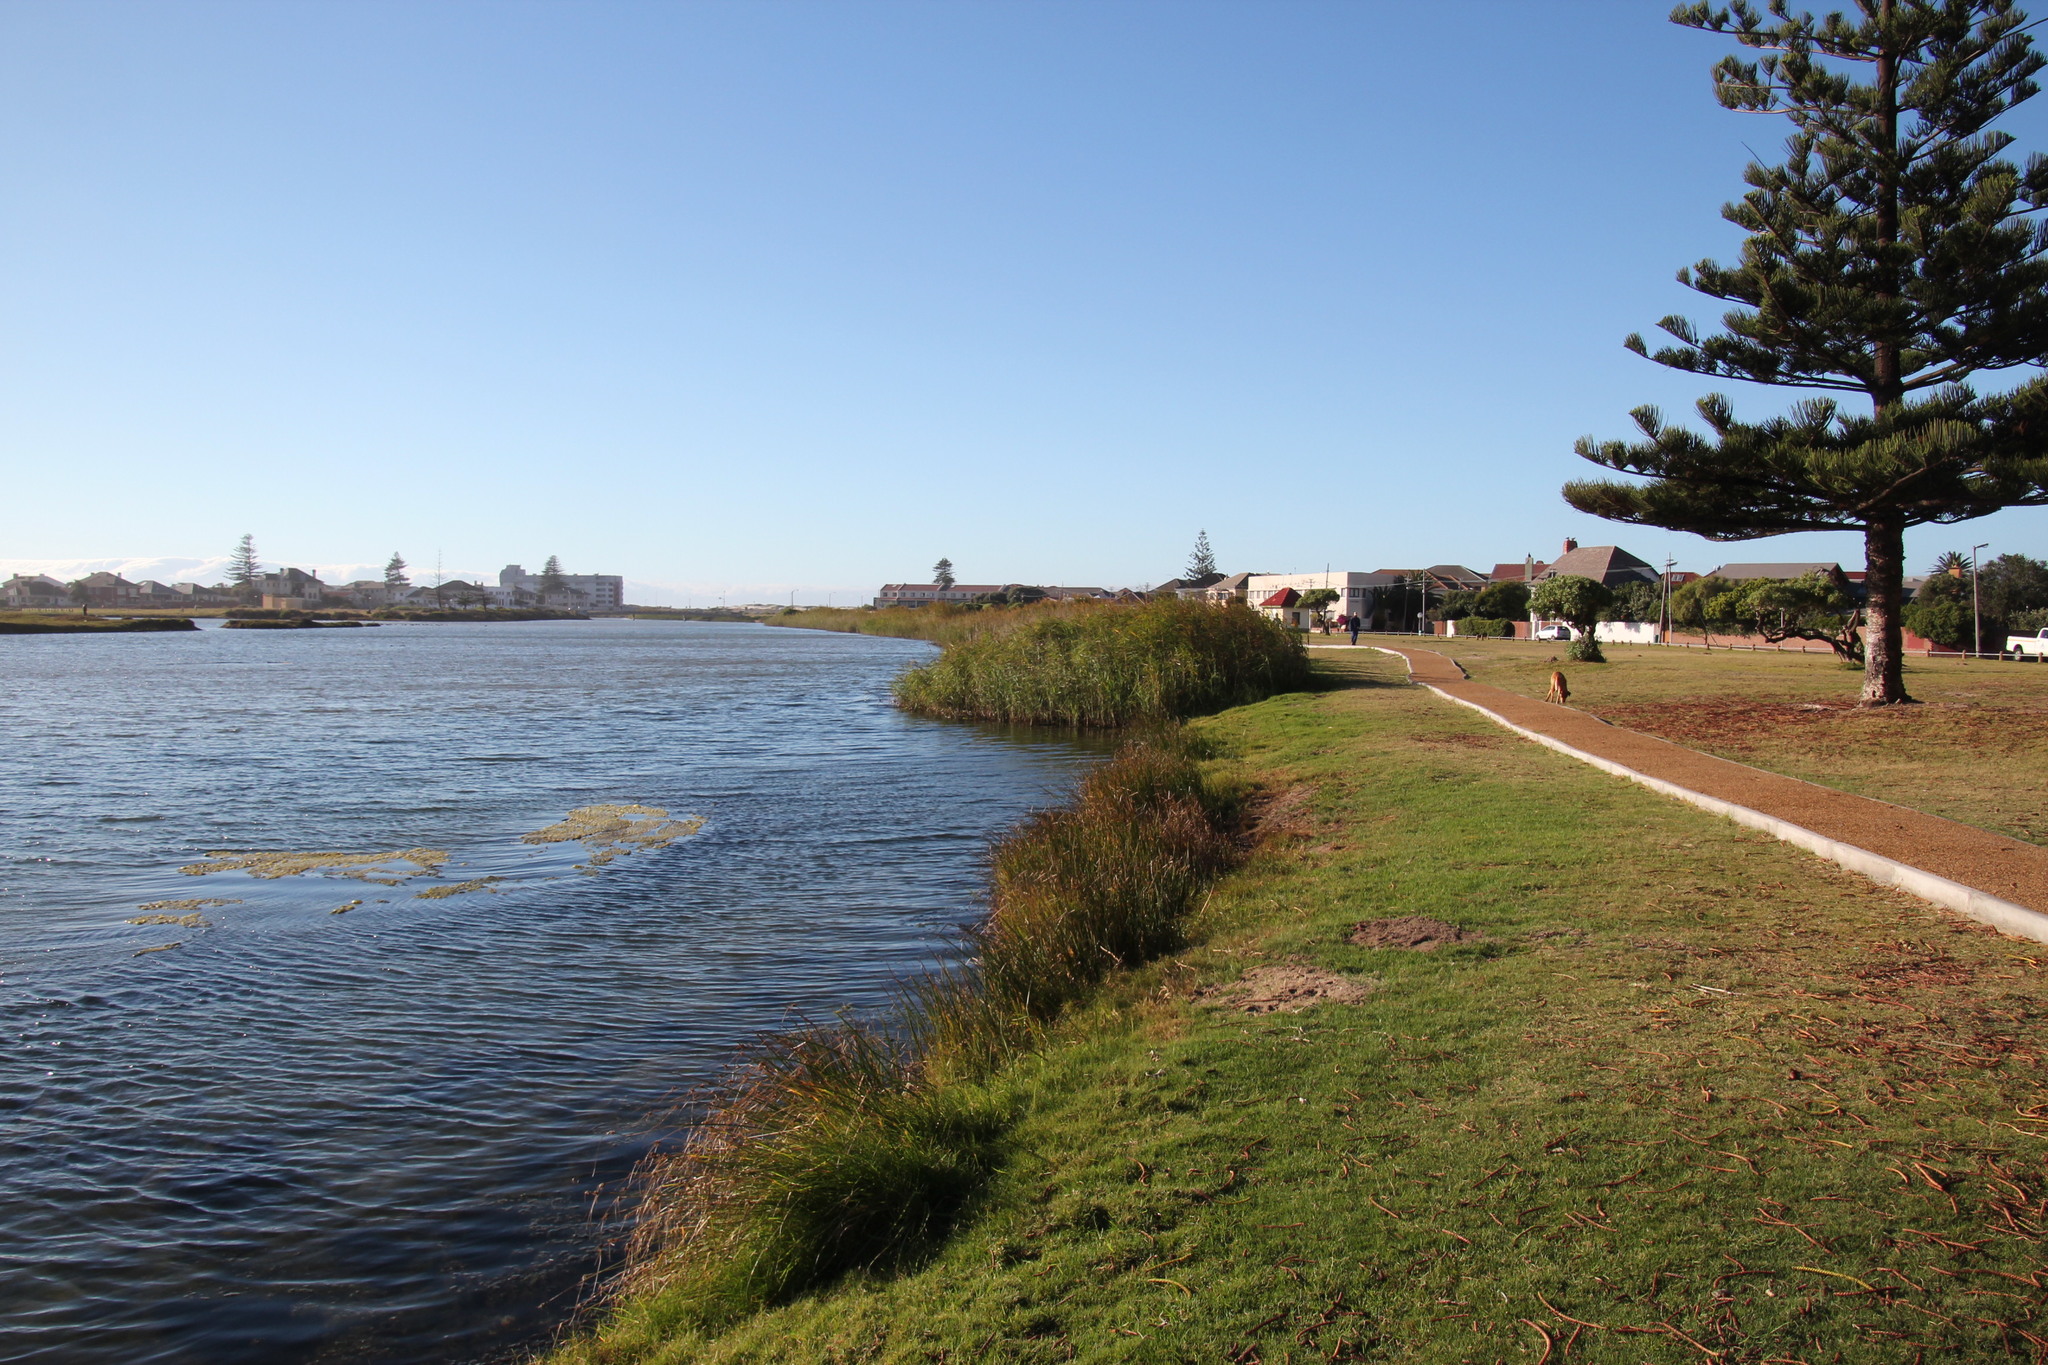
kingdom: Plantae
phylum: Tracheophyta
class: Liliopsida
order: Poales
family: Poaceae
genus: Phragmites
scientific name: Phragmites australis
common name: Common reed
